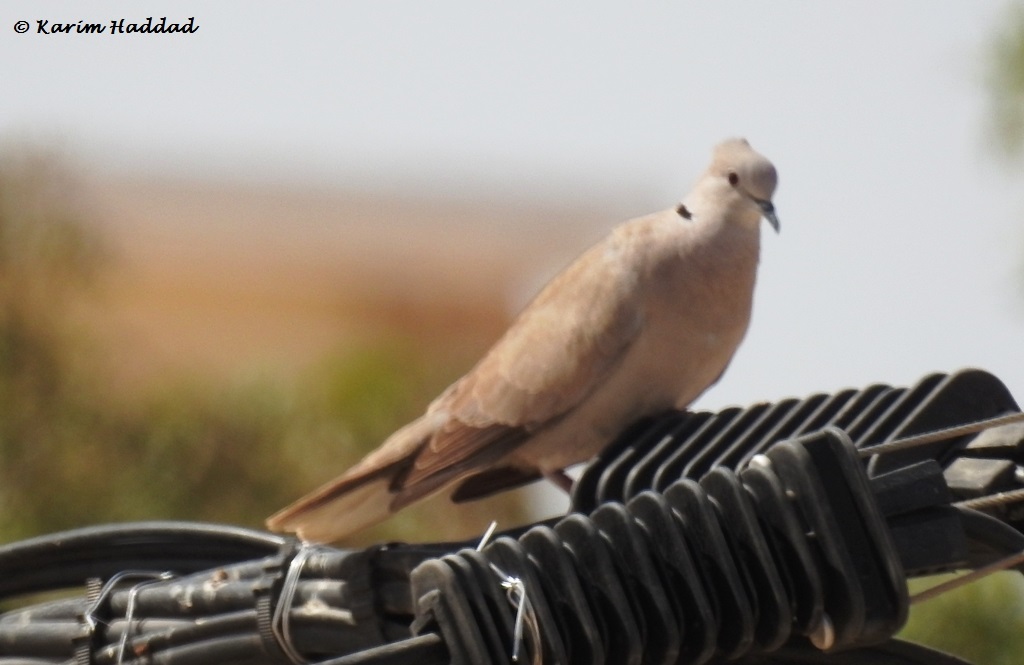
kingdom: Animalia
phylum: Chordata
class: Aves
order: Columbiformes
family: Columbidae
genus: Streptopelia
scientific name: Streptopelia decaocto
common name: Eurasian collared dove
